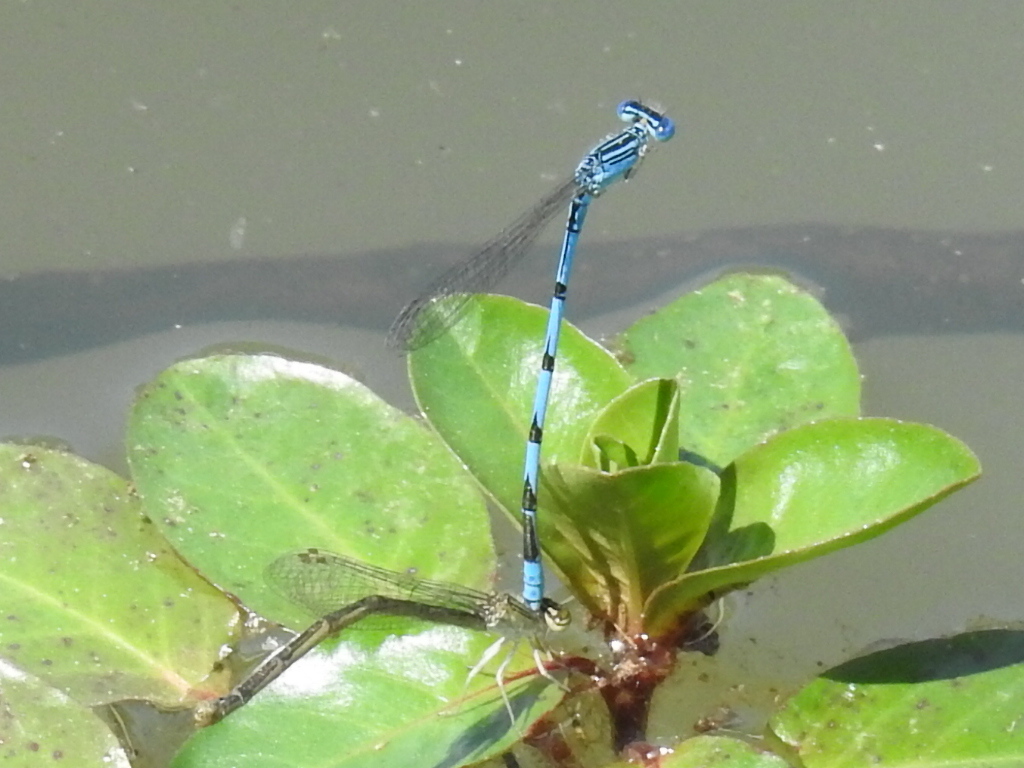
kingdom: Animalia
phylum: Arthropoda
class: Insecta
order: Odonata
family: Coenagrionidae
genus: Enallagma
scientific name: Enallagma basidens
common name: Double-striped bluet
